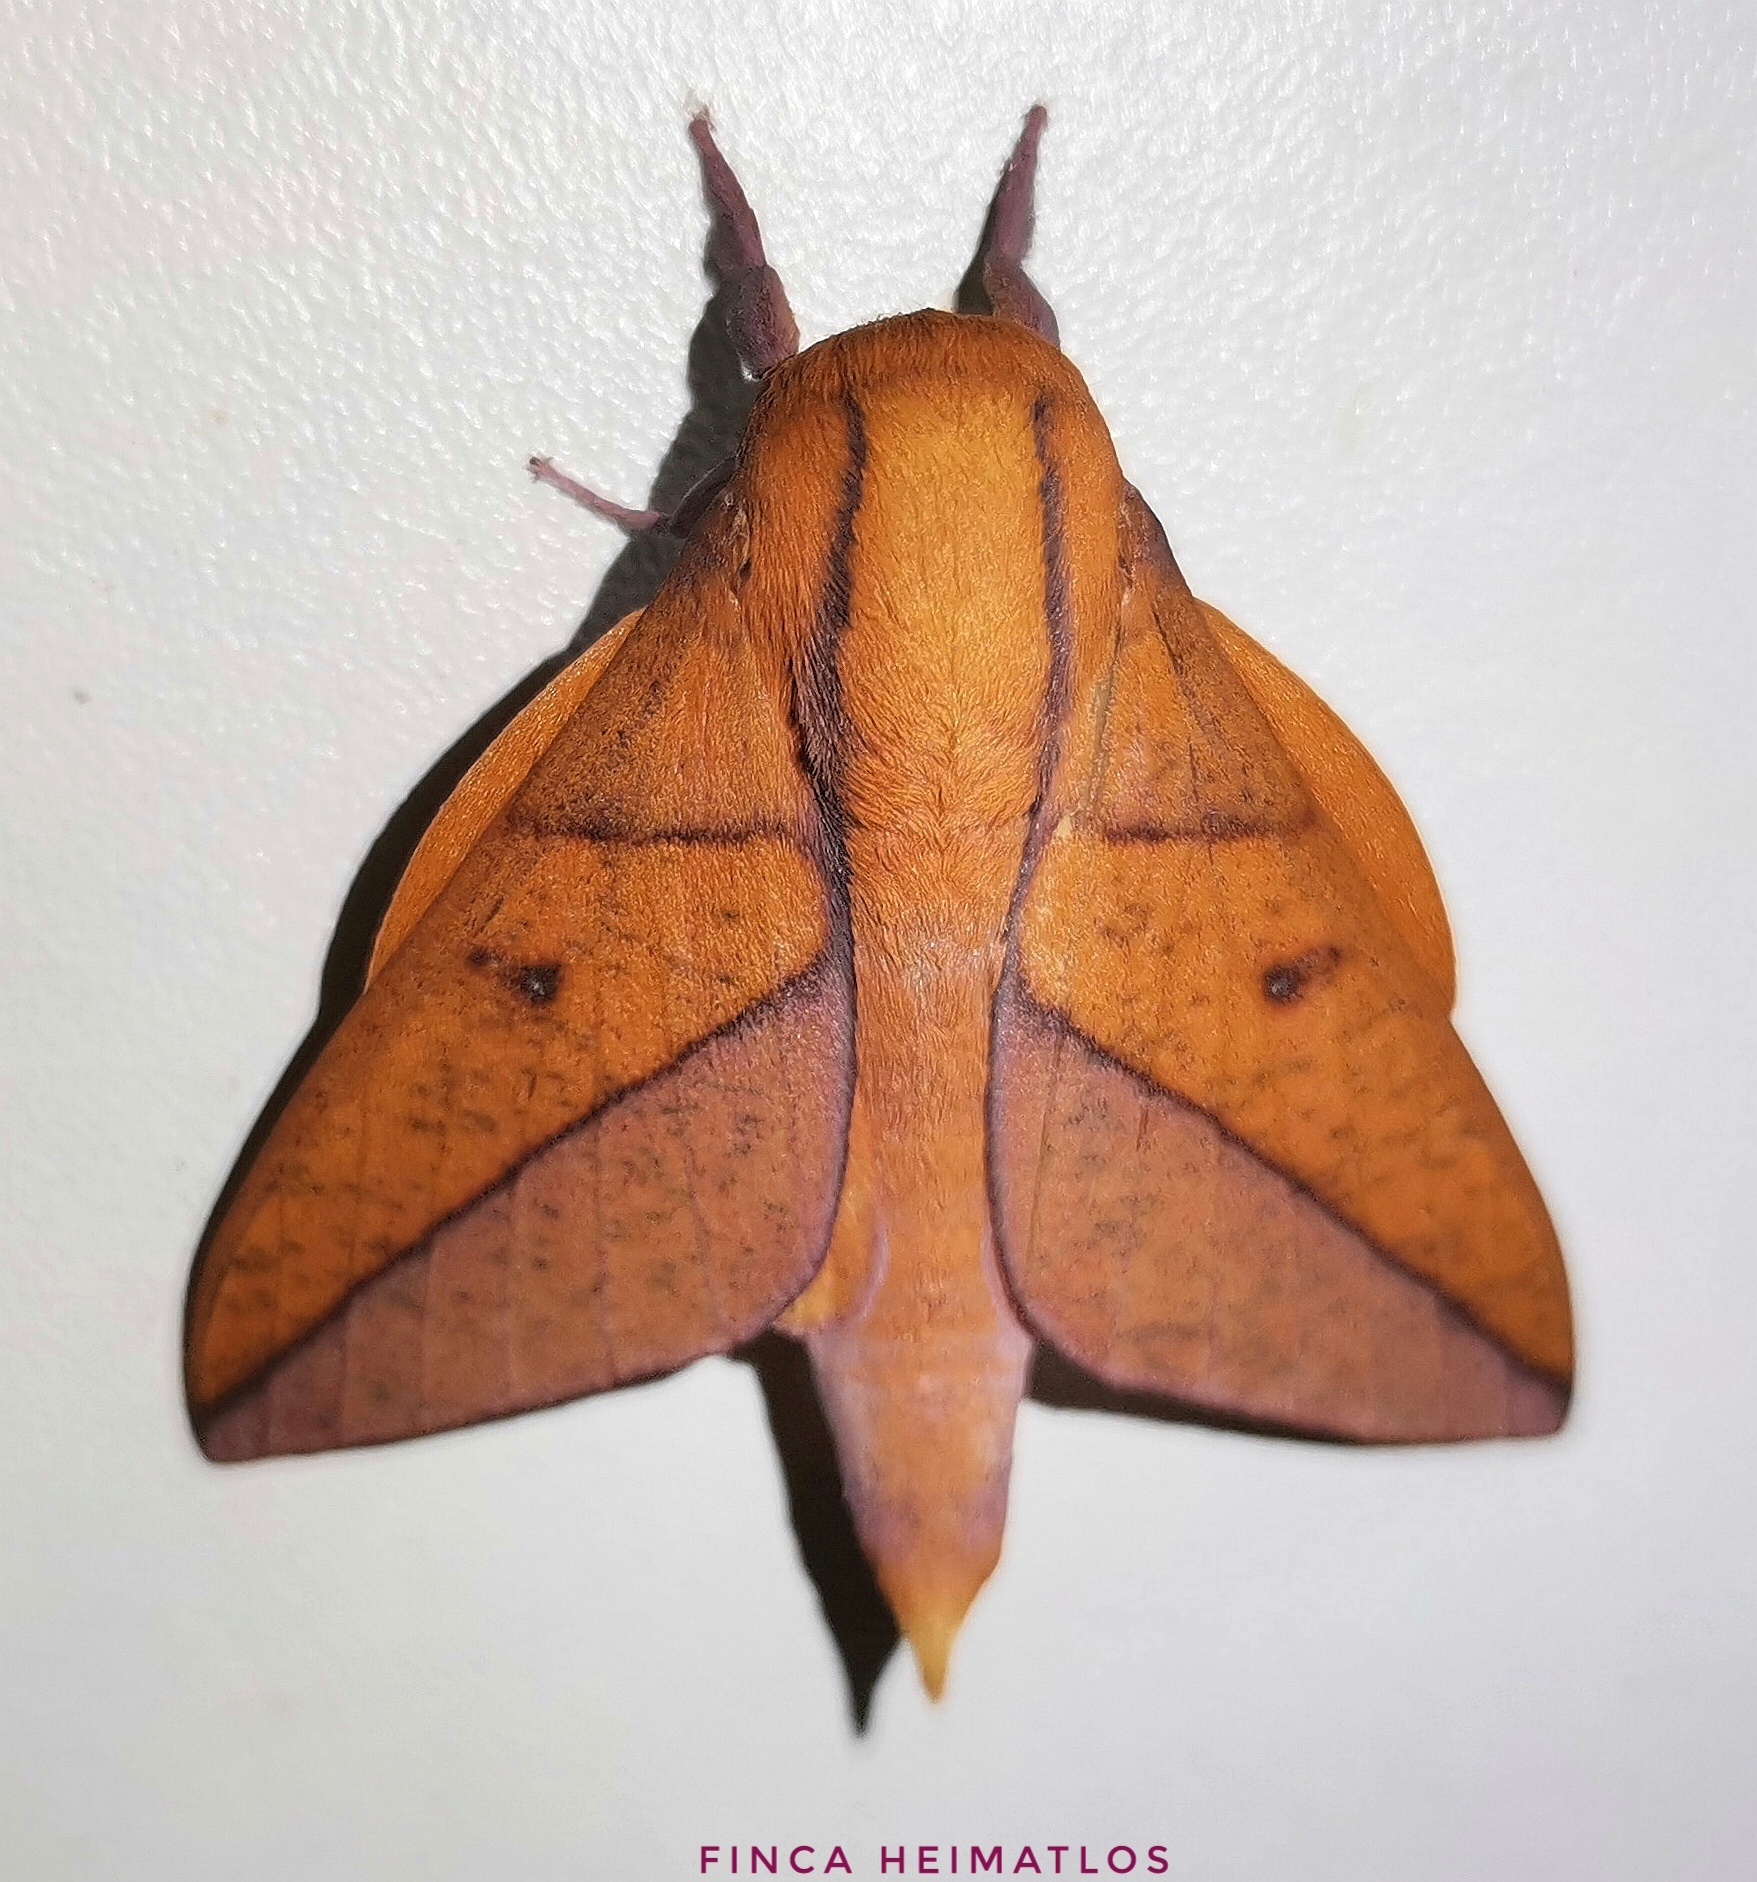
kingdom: Animalia
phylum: Arthropoda
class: Insecta
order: Lepidoptera
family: Saturniidae
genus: Adeloneivaia
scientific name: Adeloneivaia boisduvalii
